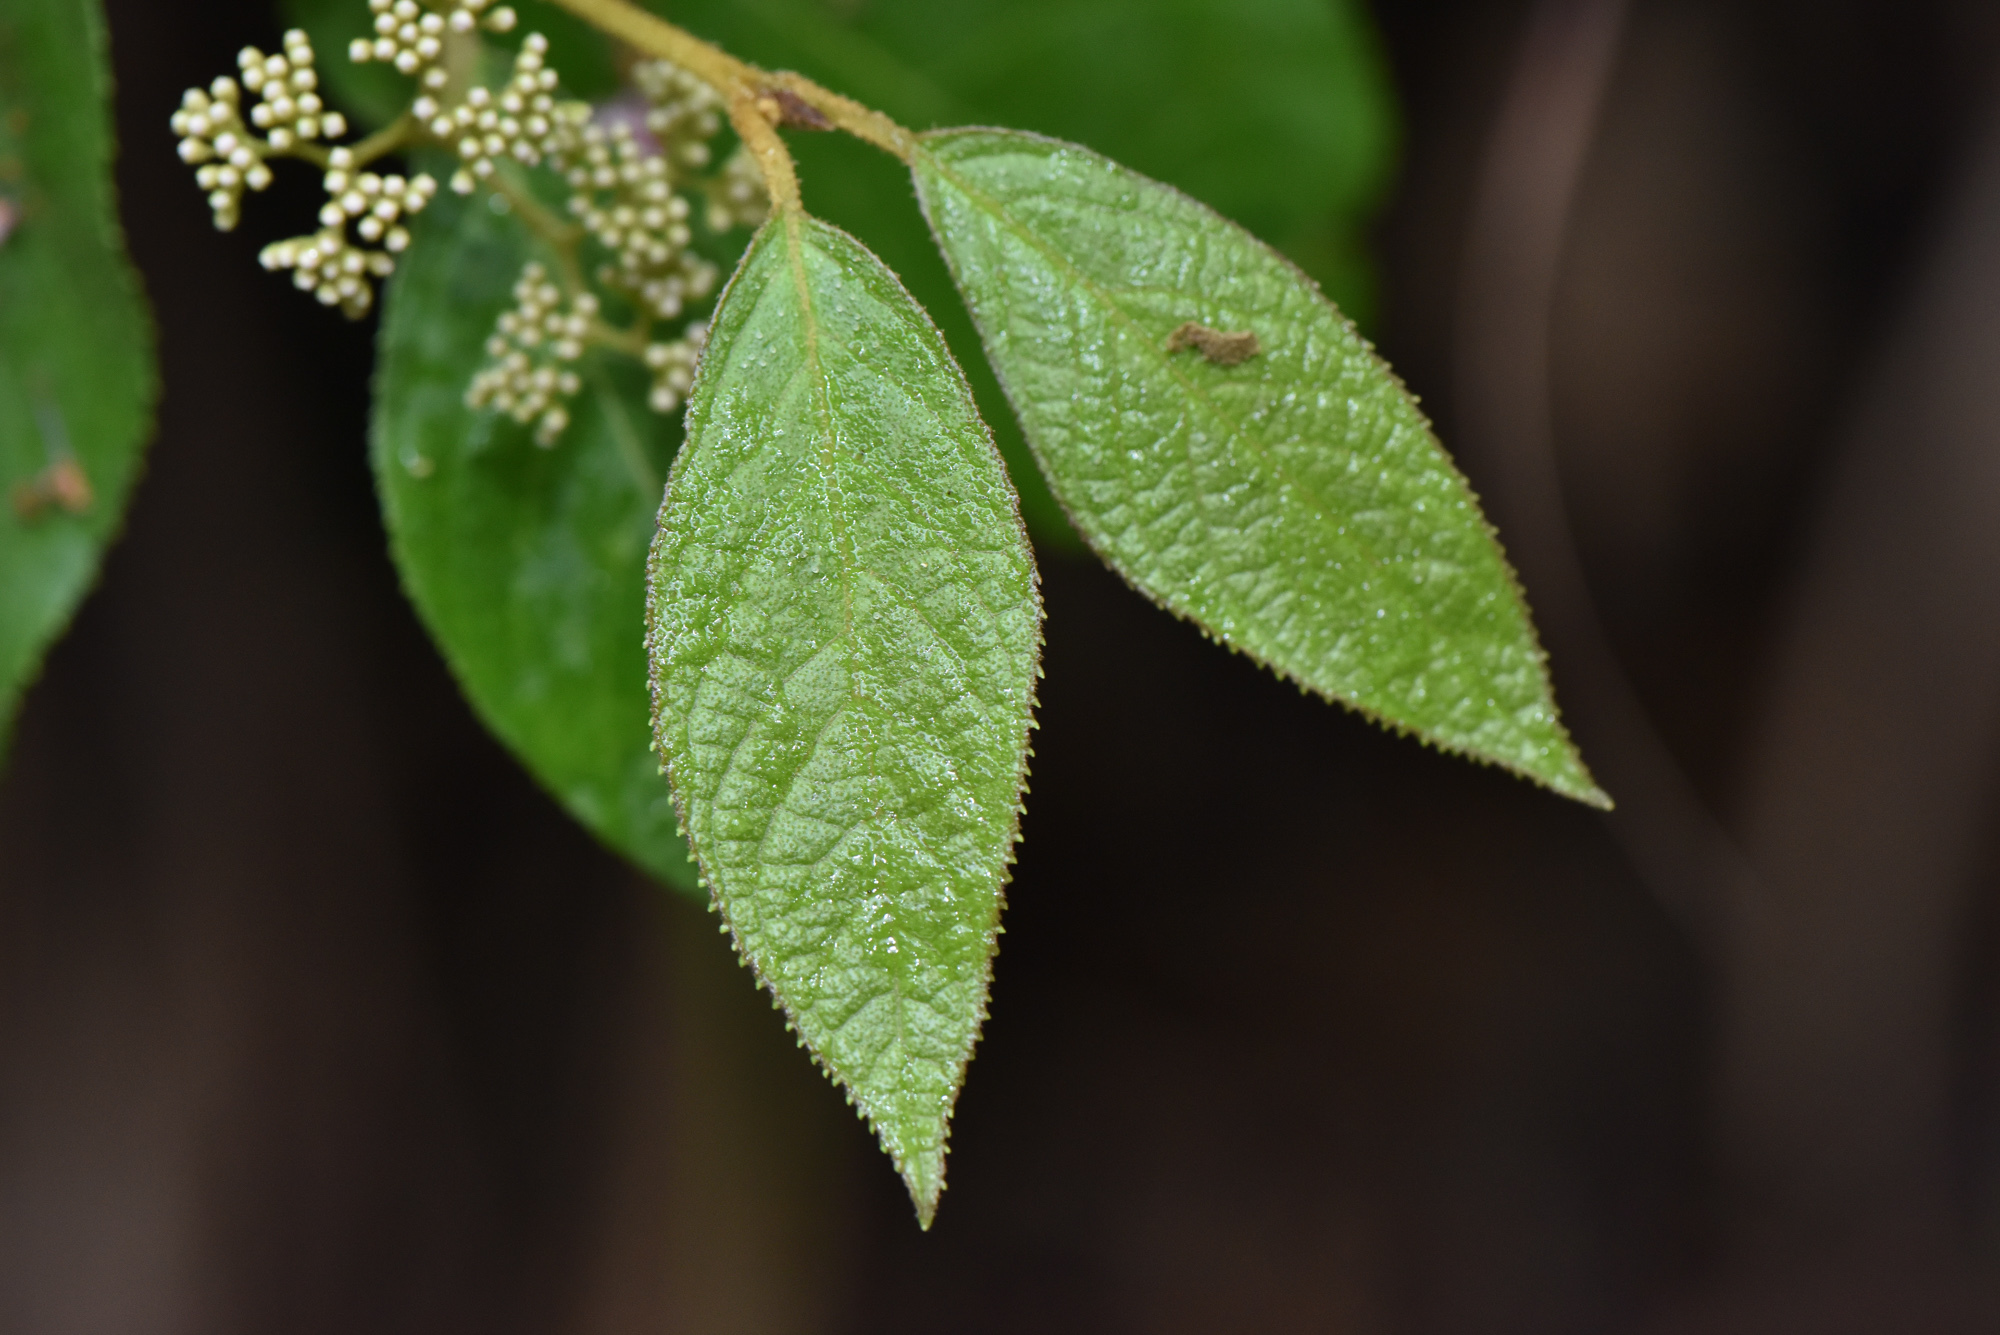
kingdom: Plantae
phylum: Tracheophyta
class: Magnoliopsida
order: Lamiales
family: Lamiaceae
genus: Callicarpa
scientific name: Callicarpa pedunculata
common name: Velvetleaf
